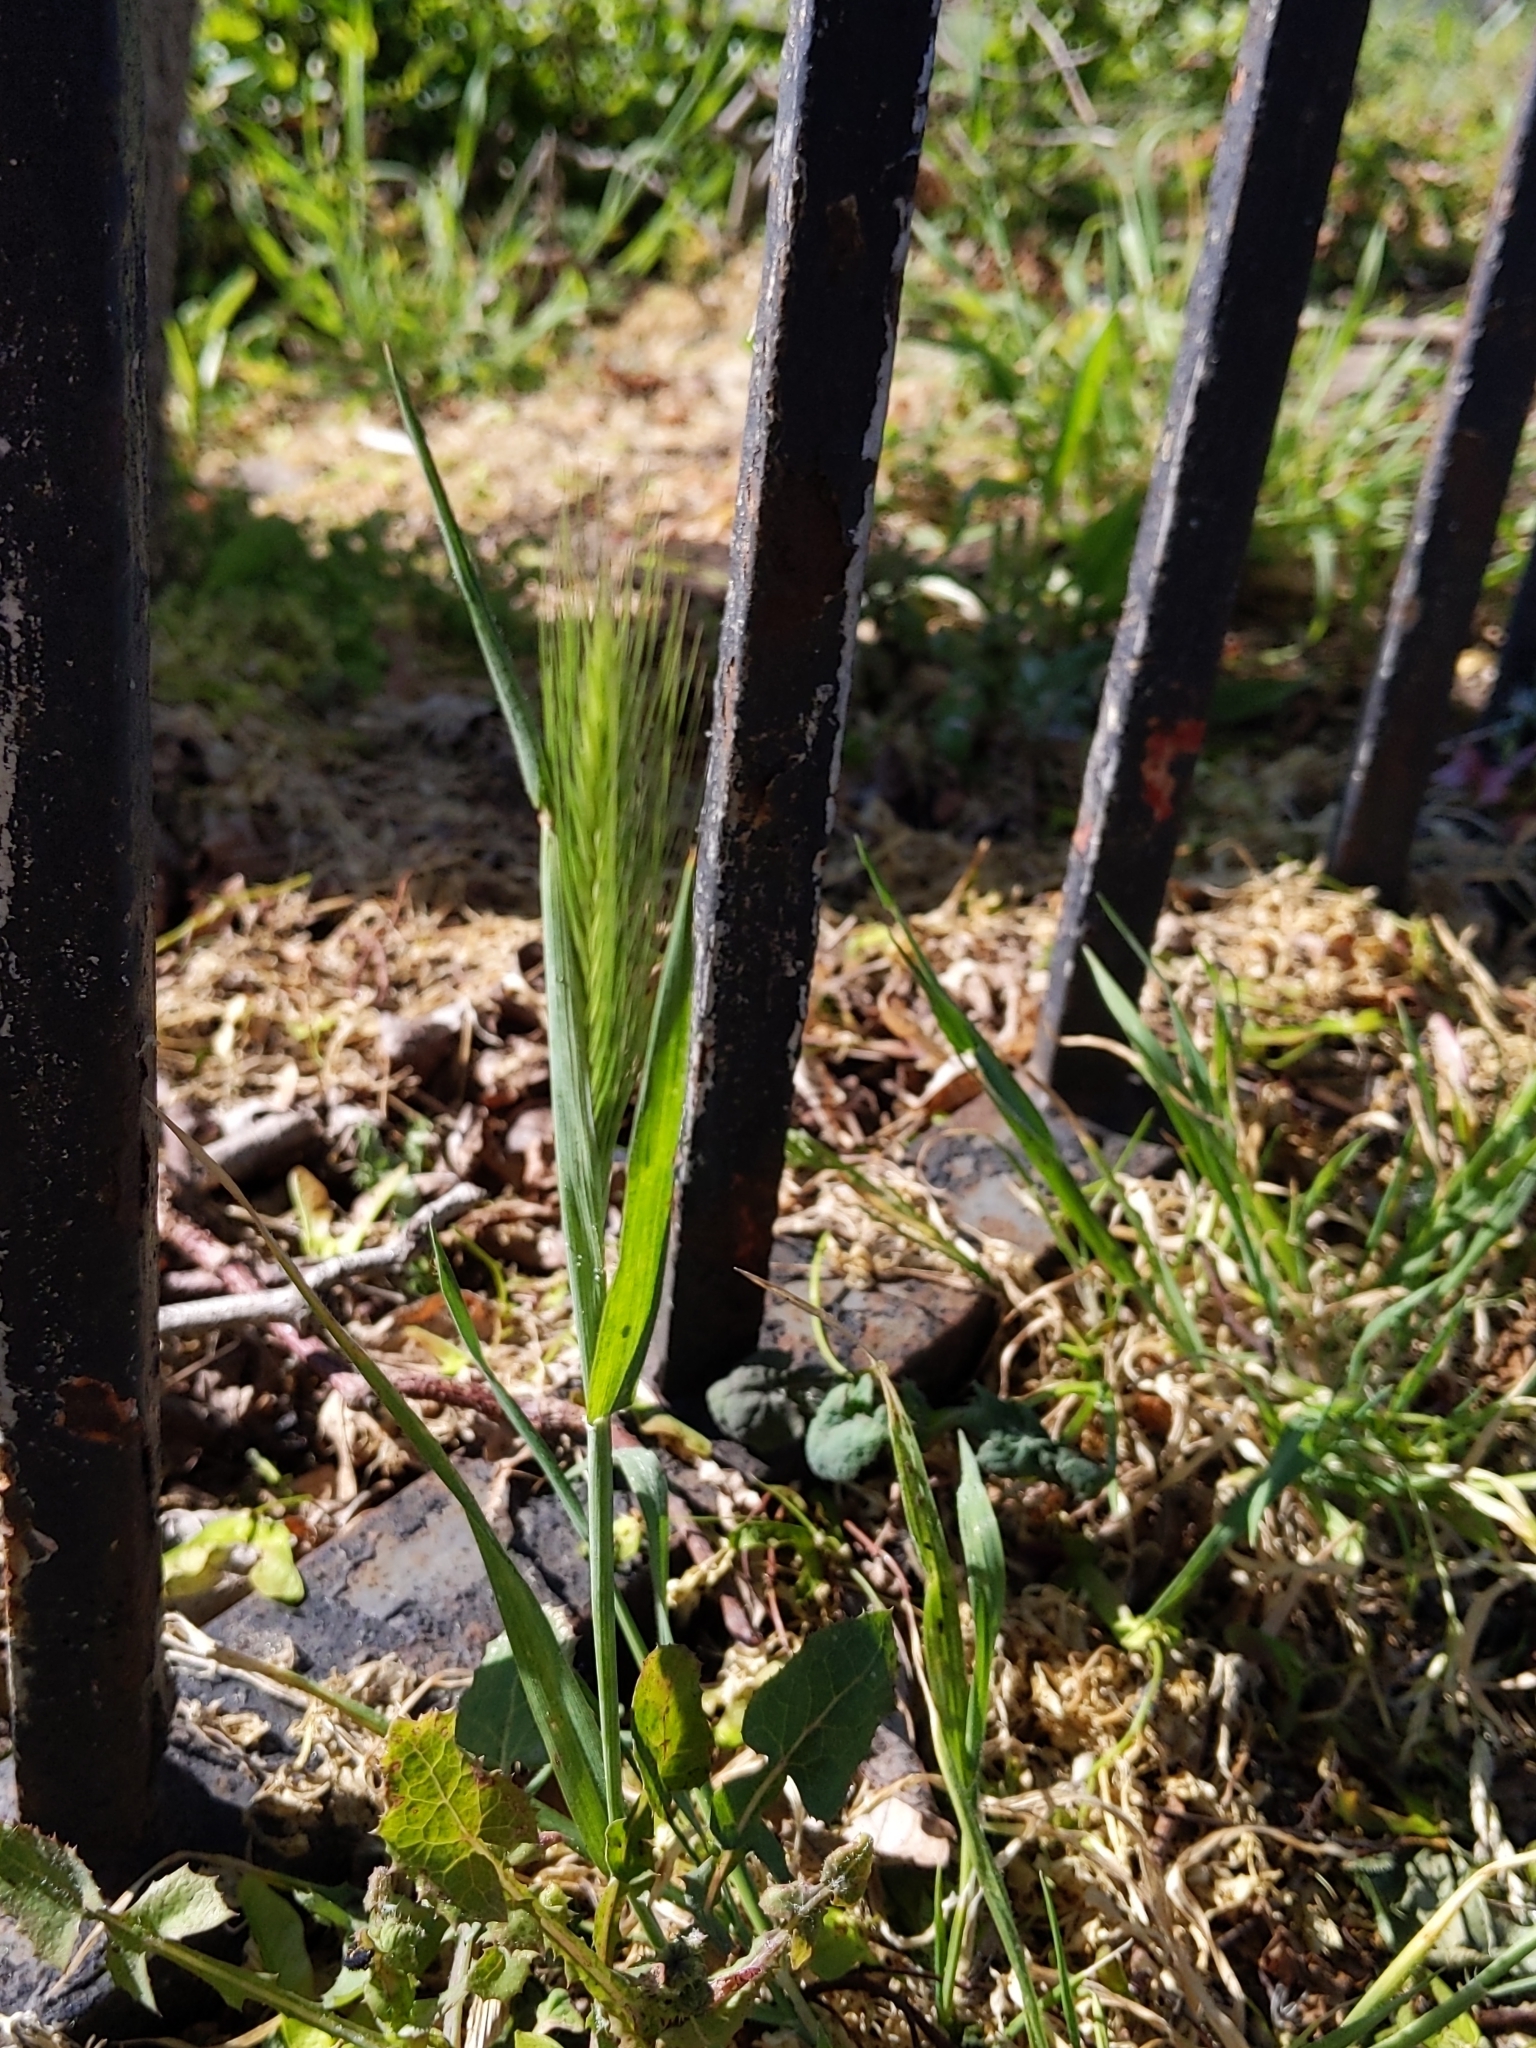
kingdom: Plantae
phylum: Tracheophyta
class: Liliopsida
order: Poales
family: Poaceae
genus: Hordeum
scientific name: Hordeum murinum
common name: Wall barley
